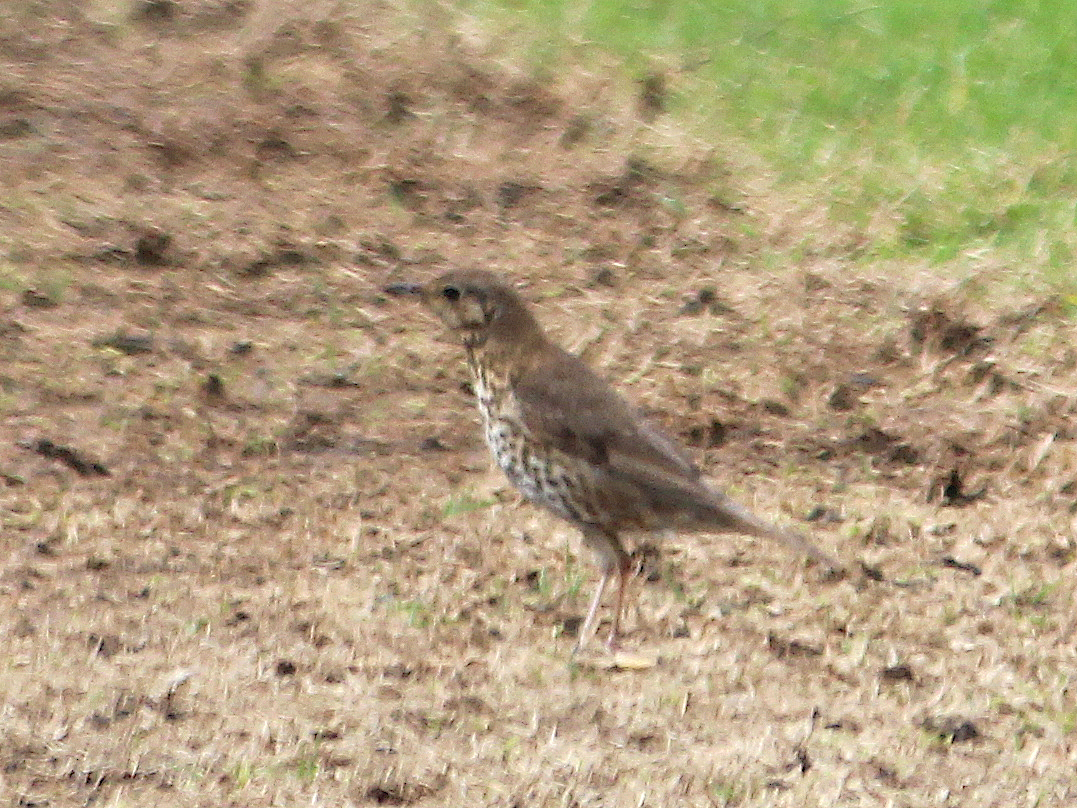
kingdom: Animalia
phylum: Chordata
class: Aves
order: Passeriformes
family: Turdidae
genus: Turdus
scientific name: Turdus philomelos
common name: Song thrush
